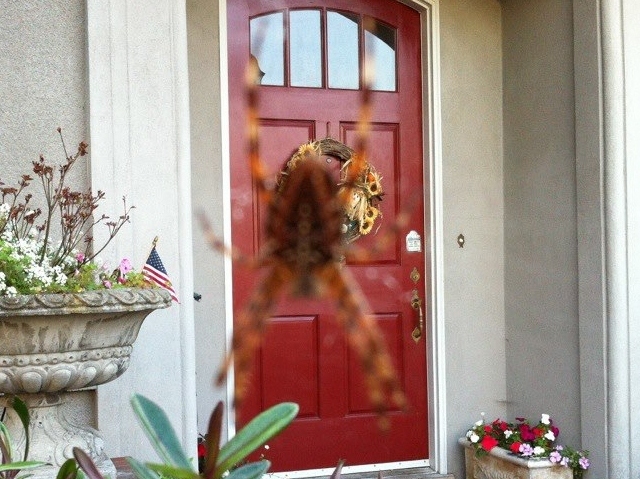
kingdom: Animalia
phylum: Arthropoda
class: Arachnida
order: Araneae
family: Araneidae
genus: Araneus
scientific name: Araneus diadematus
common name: Cross orbweaver
